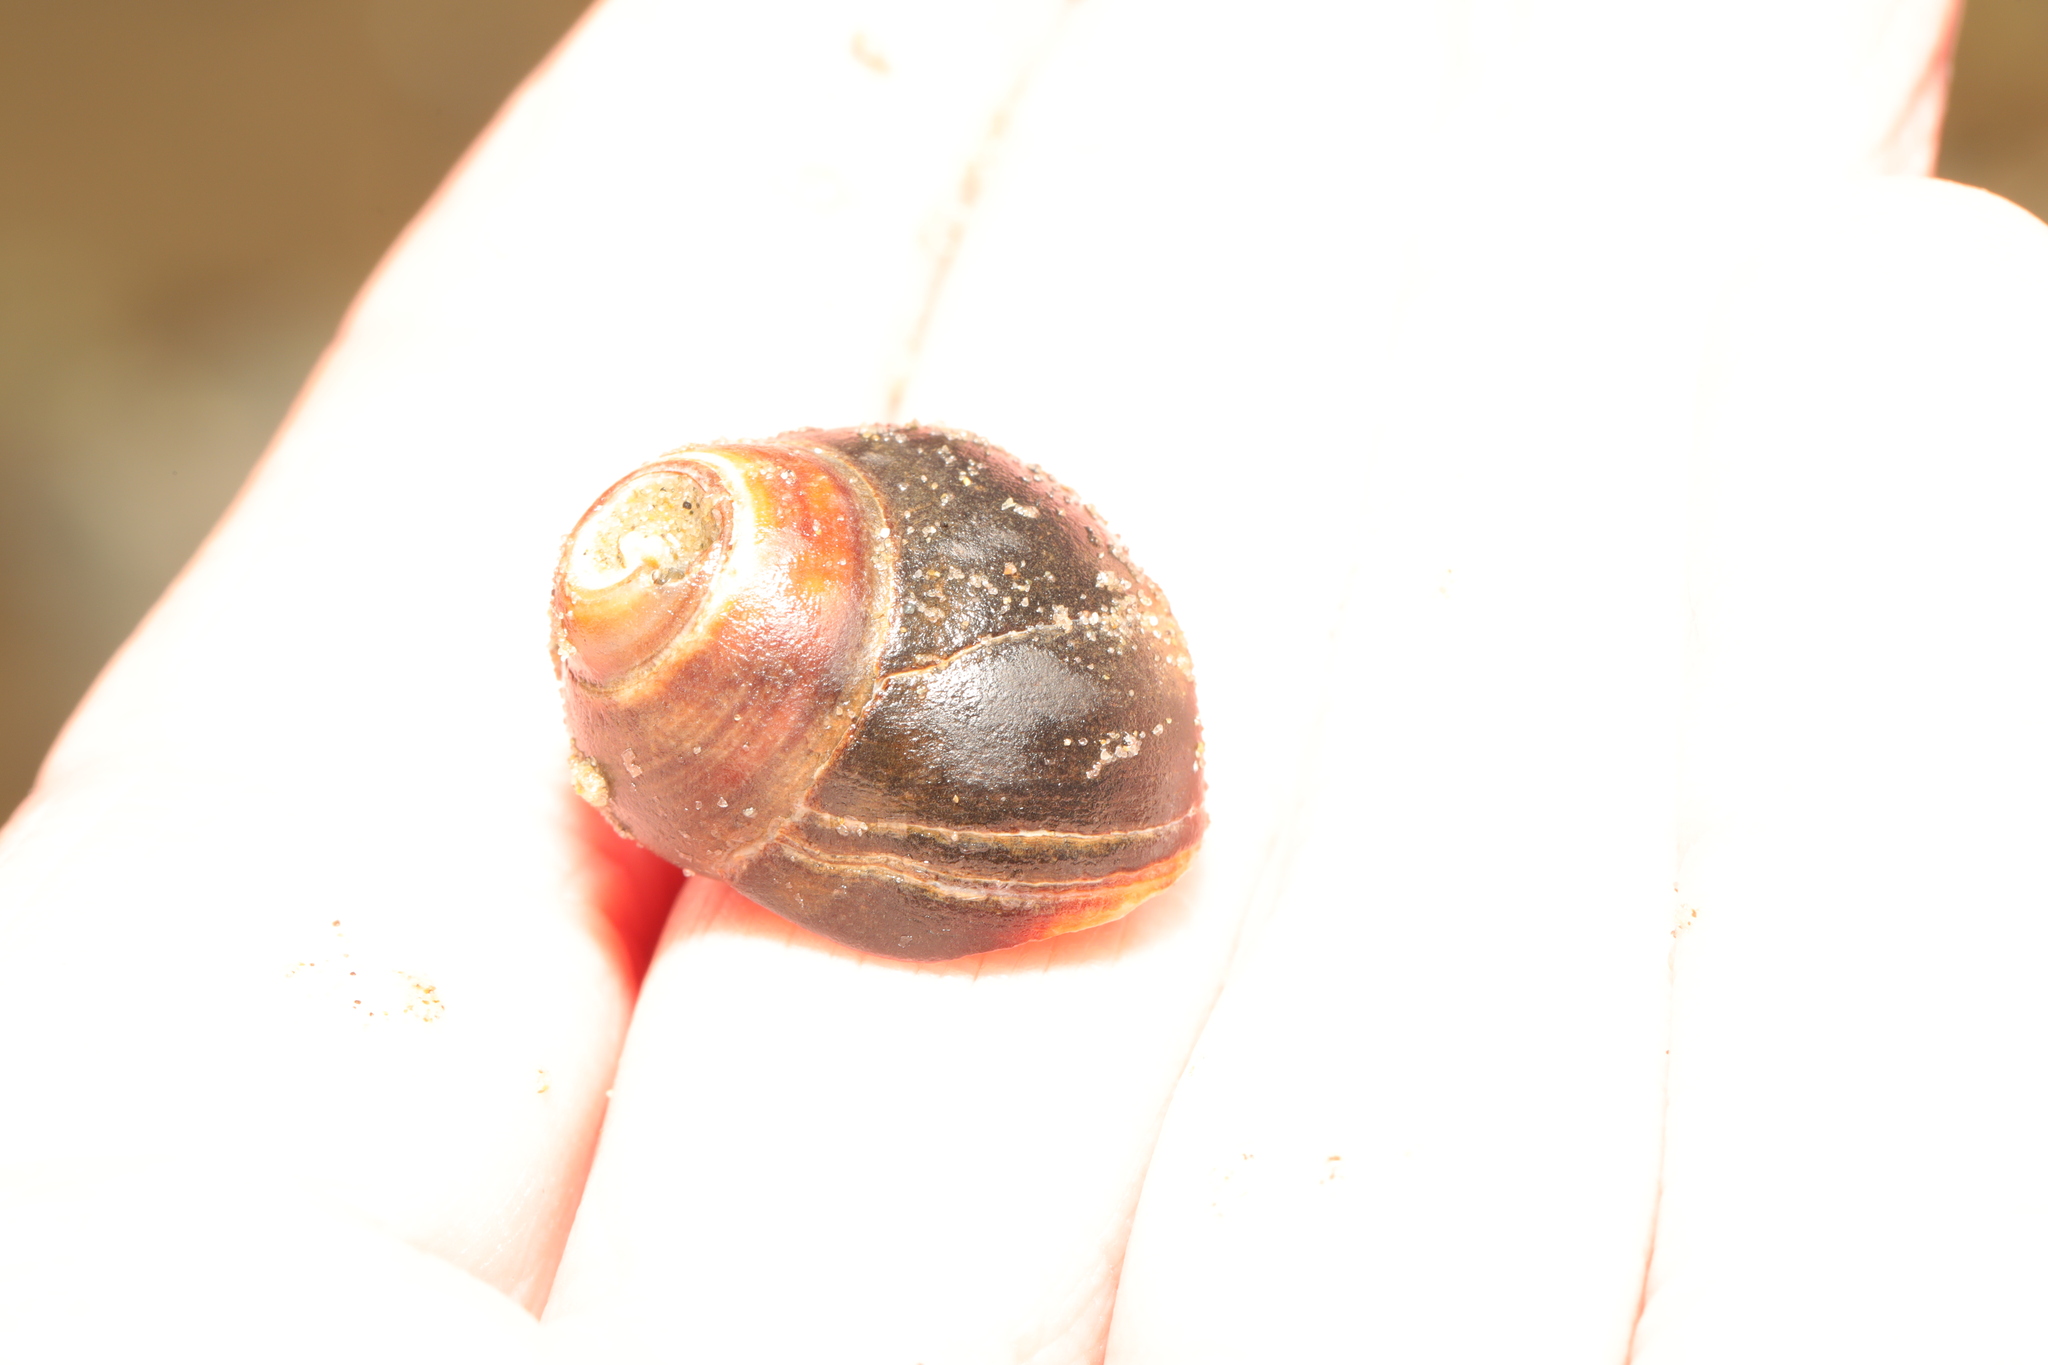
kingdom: Animalia
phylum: Mollusca
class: Gastropoda
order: Littorinimorpha
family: Littorinidae
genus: Littorina
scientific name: Littorina littorea
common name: Common periwinkle
